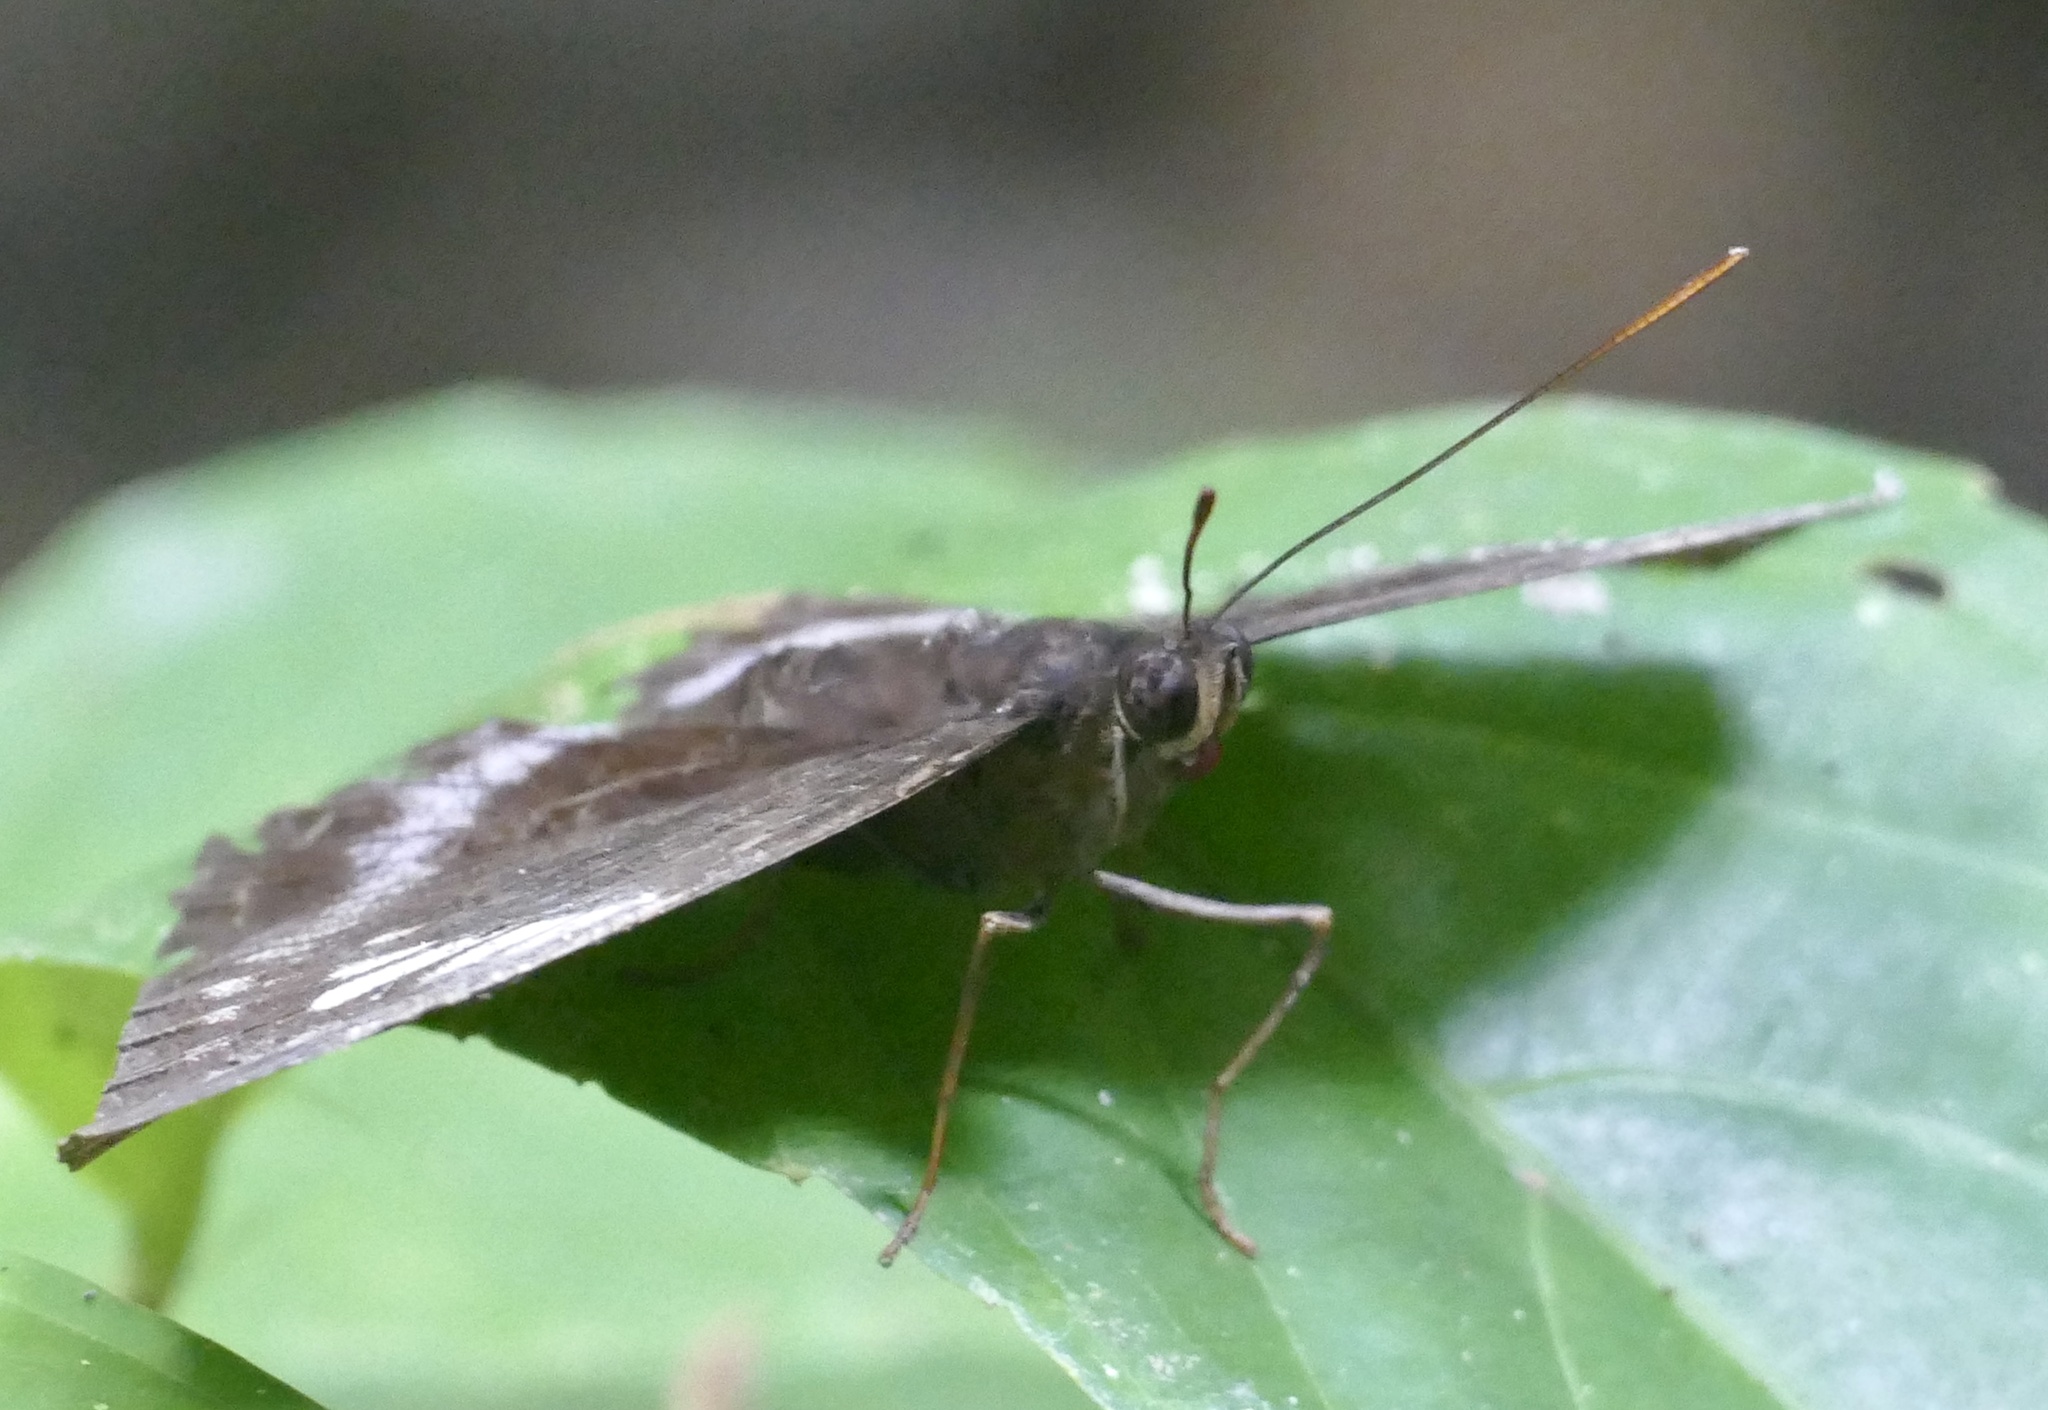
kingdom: Animalia
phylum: Arthropoda
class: Insecta
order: Lepidoptera
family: Nymphalidae
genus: Lexias
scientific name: Lexias aeetes
